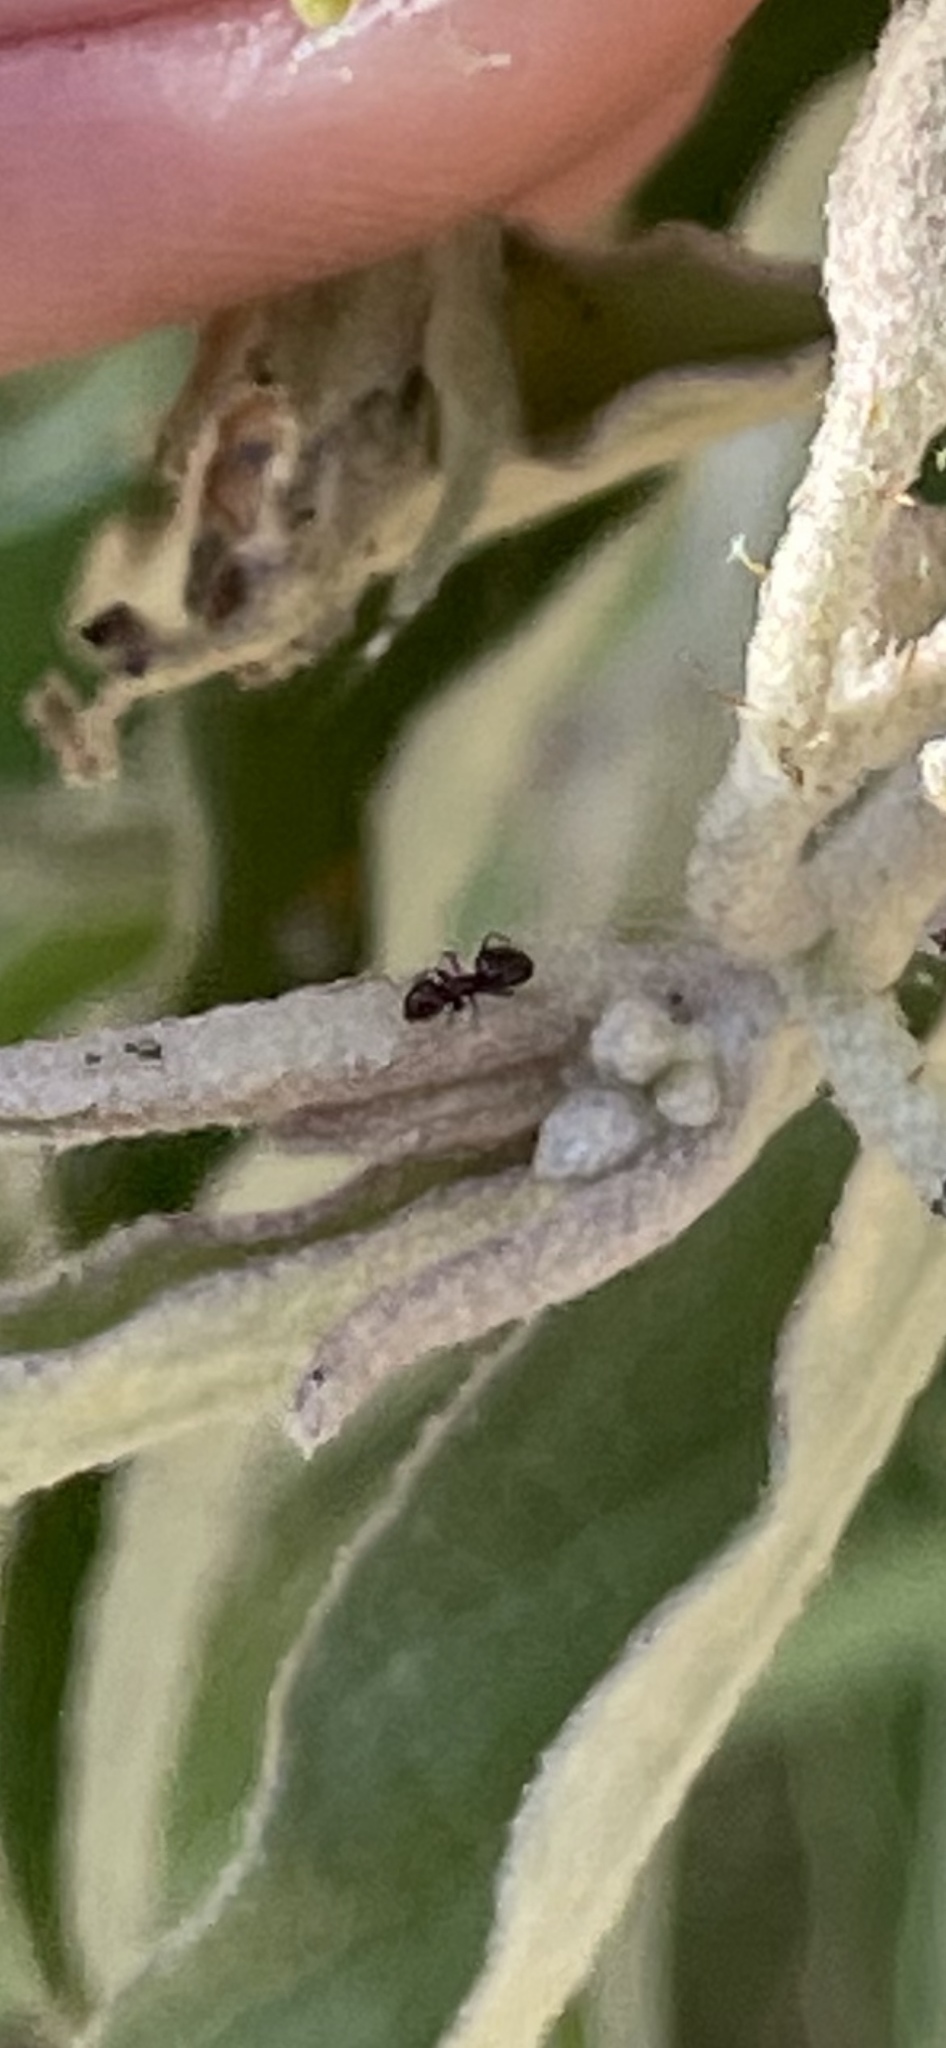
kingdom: Animalia
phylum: Arthropoda
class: Insecta
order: Hymenoptera
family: Formicidae
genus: Brachymyrmex
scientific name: Brachymyrmex patagonicus
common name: Dark rover ant
